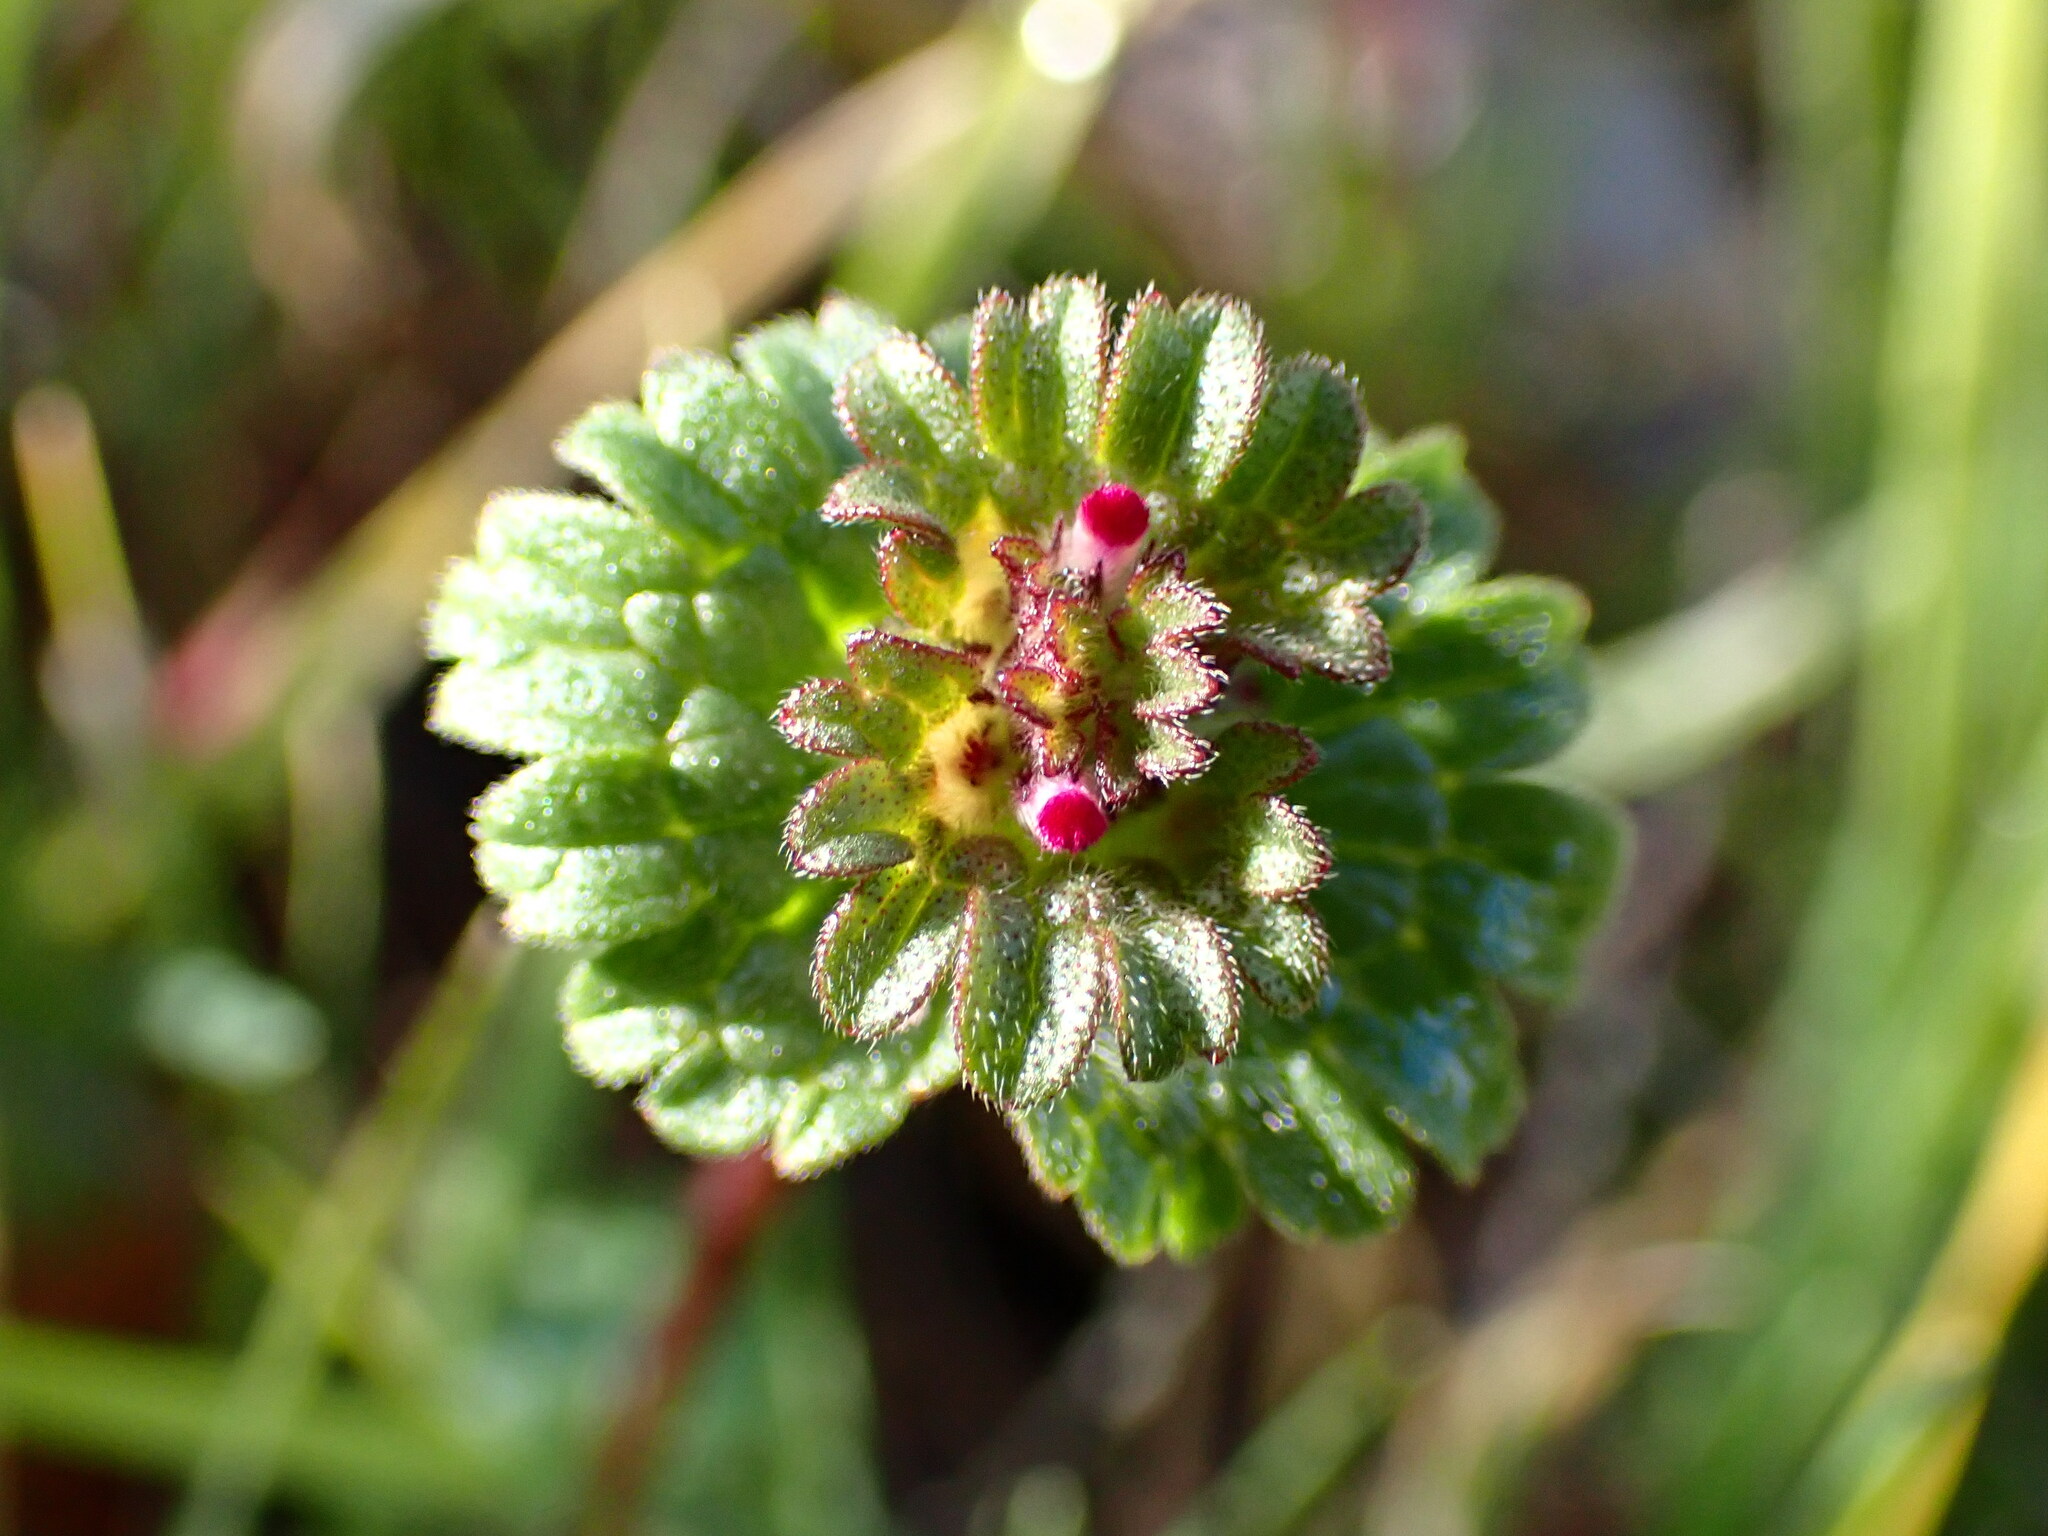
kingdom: Plantae
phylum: Tracheophyta
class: Magnoliopsida
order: Lamiales
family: Lamiaceae
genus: Lamium
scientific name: Lamium amplexicaule
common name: Henbit dead-nettle
